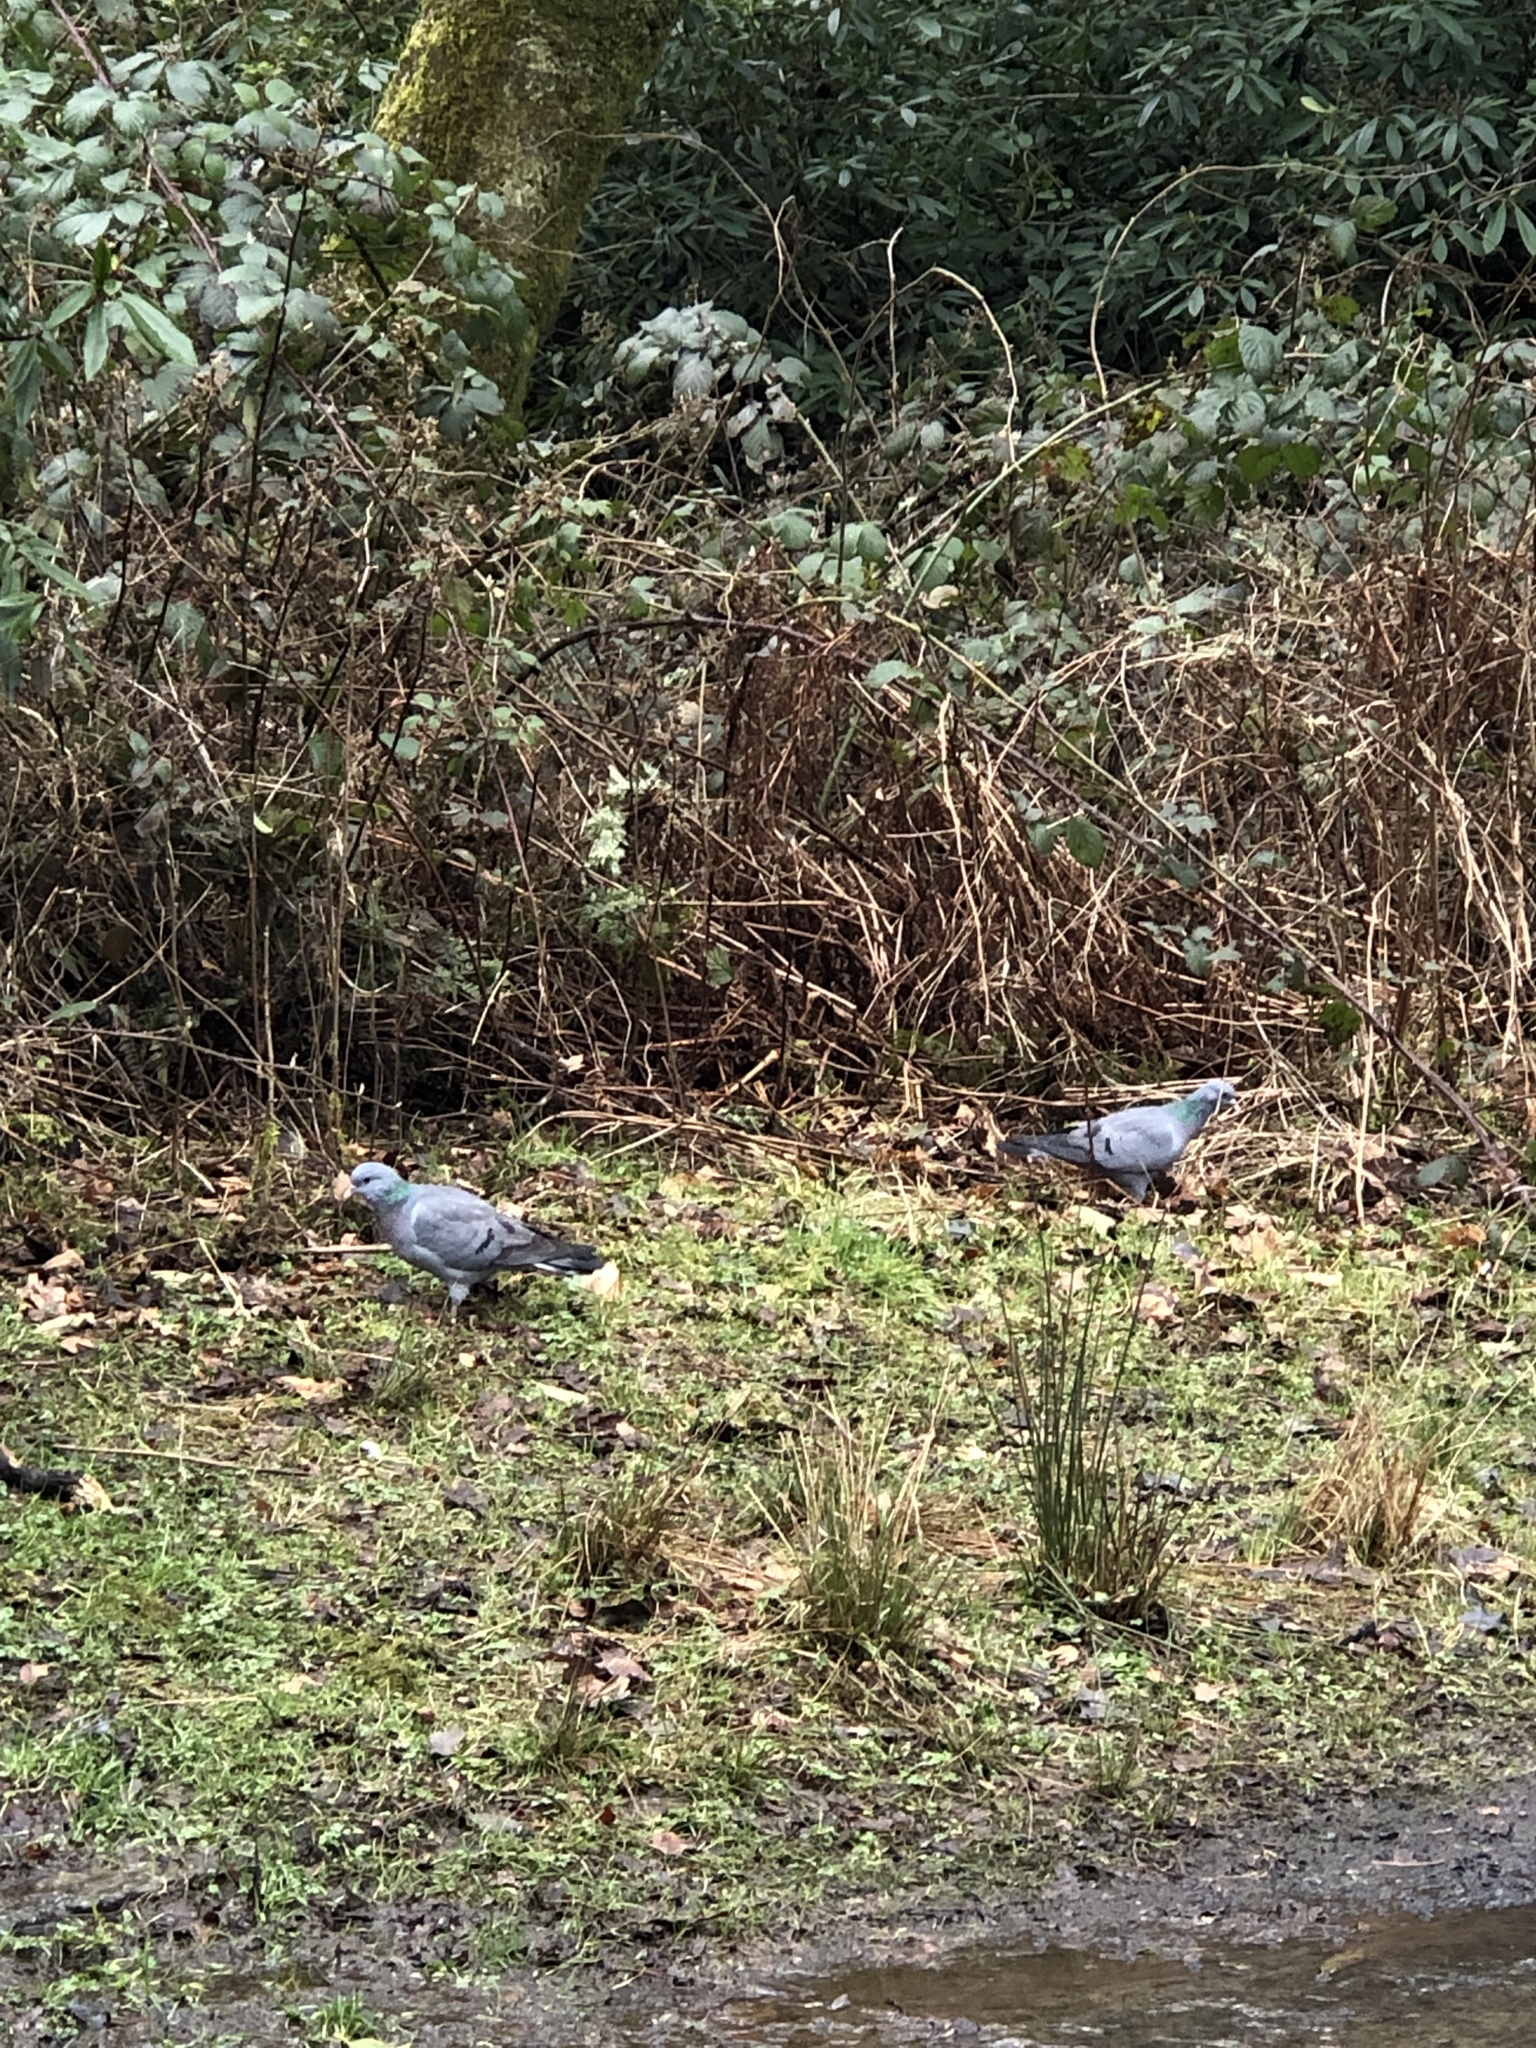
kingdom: Animalia
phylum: Chordata
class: Aves
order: Columbiformes
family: Columbidae
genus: Columba
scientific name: Columba oenas
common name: Stock dove
